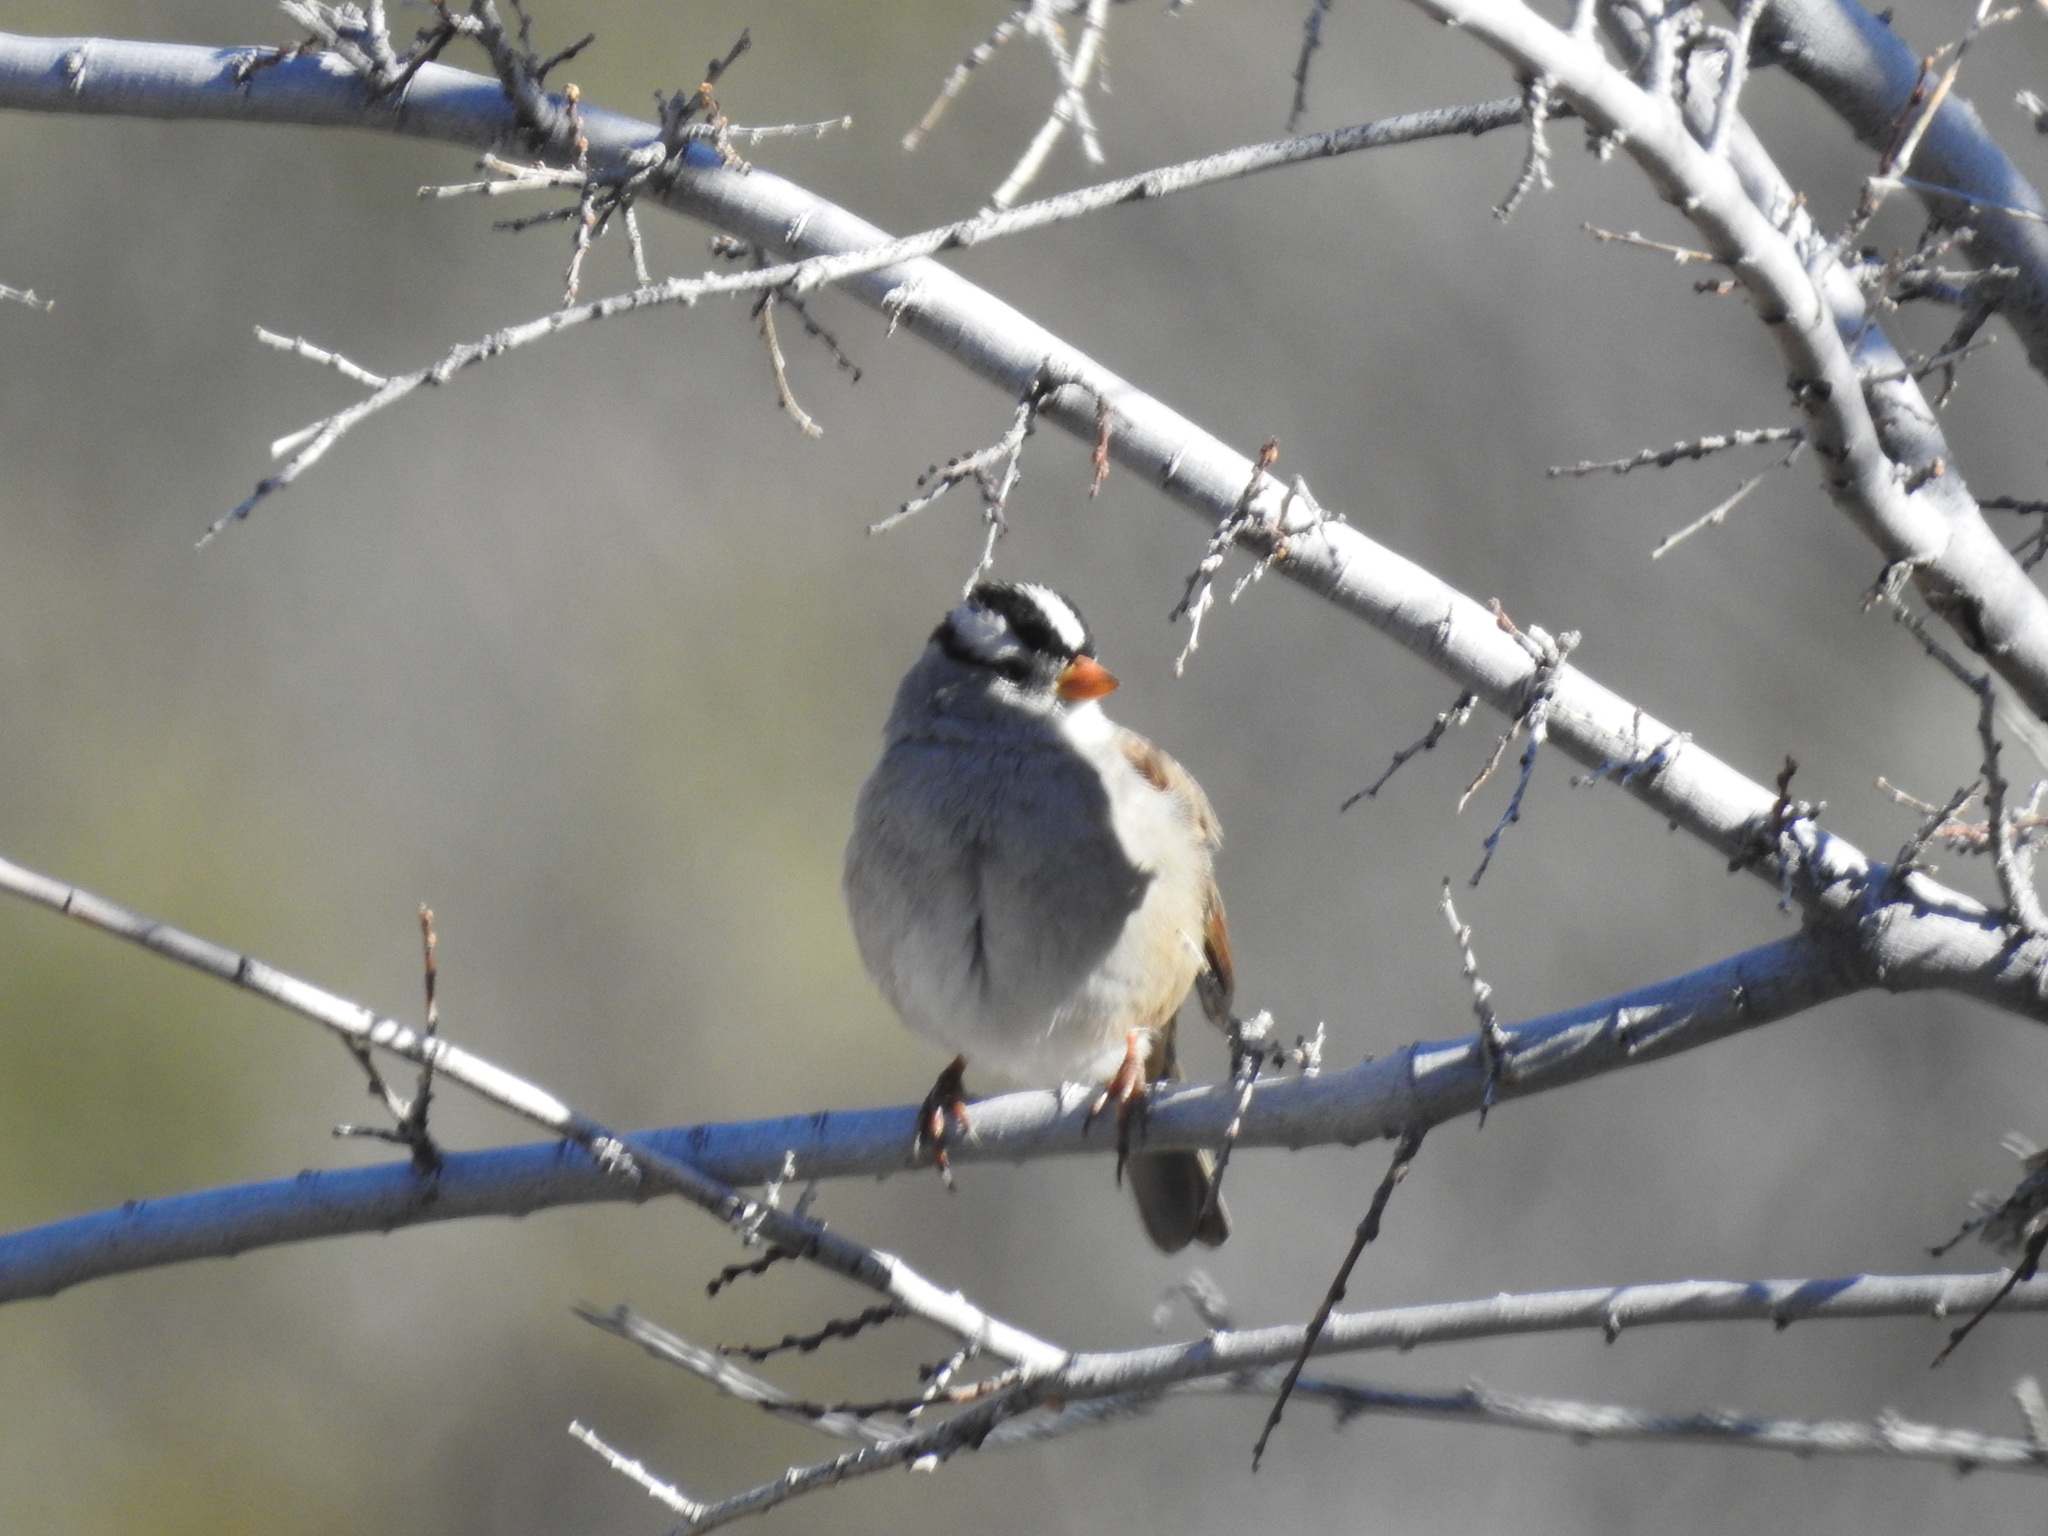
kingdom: Animalia
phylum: Chordata
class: Aves
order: Passeriformes
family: Passerellidae
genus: Zonotrichia
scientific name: Zonotrichia leucophrys
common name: White-crowned sparrow
